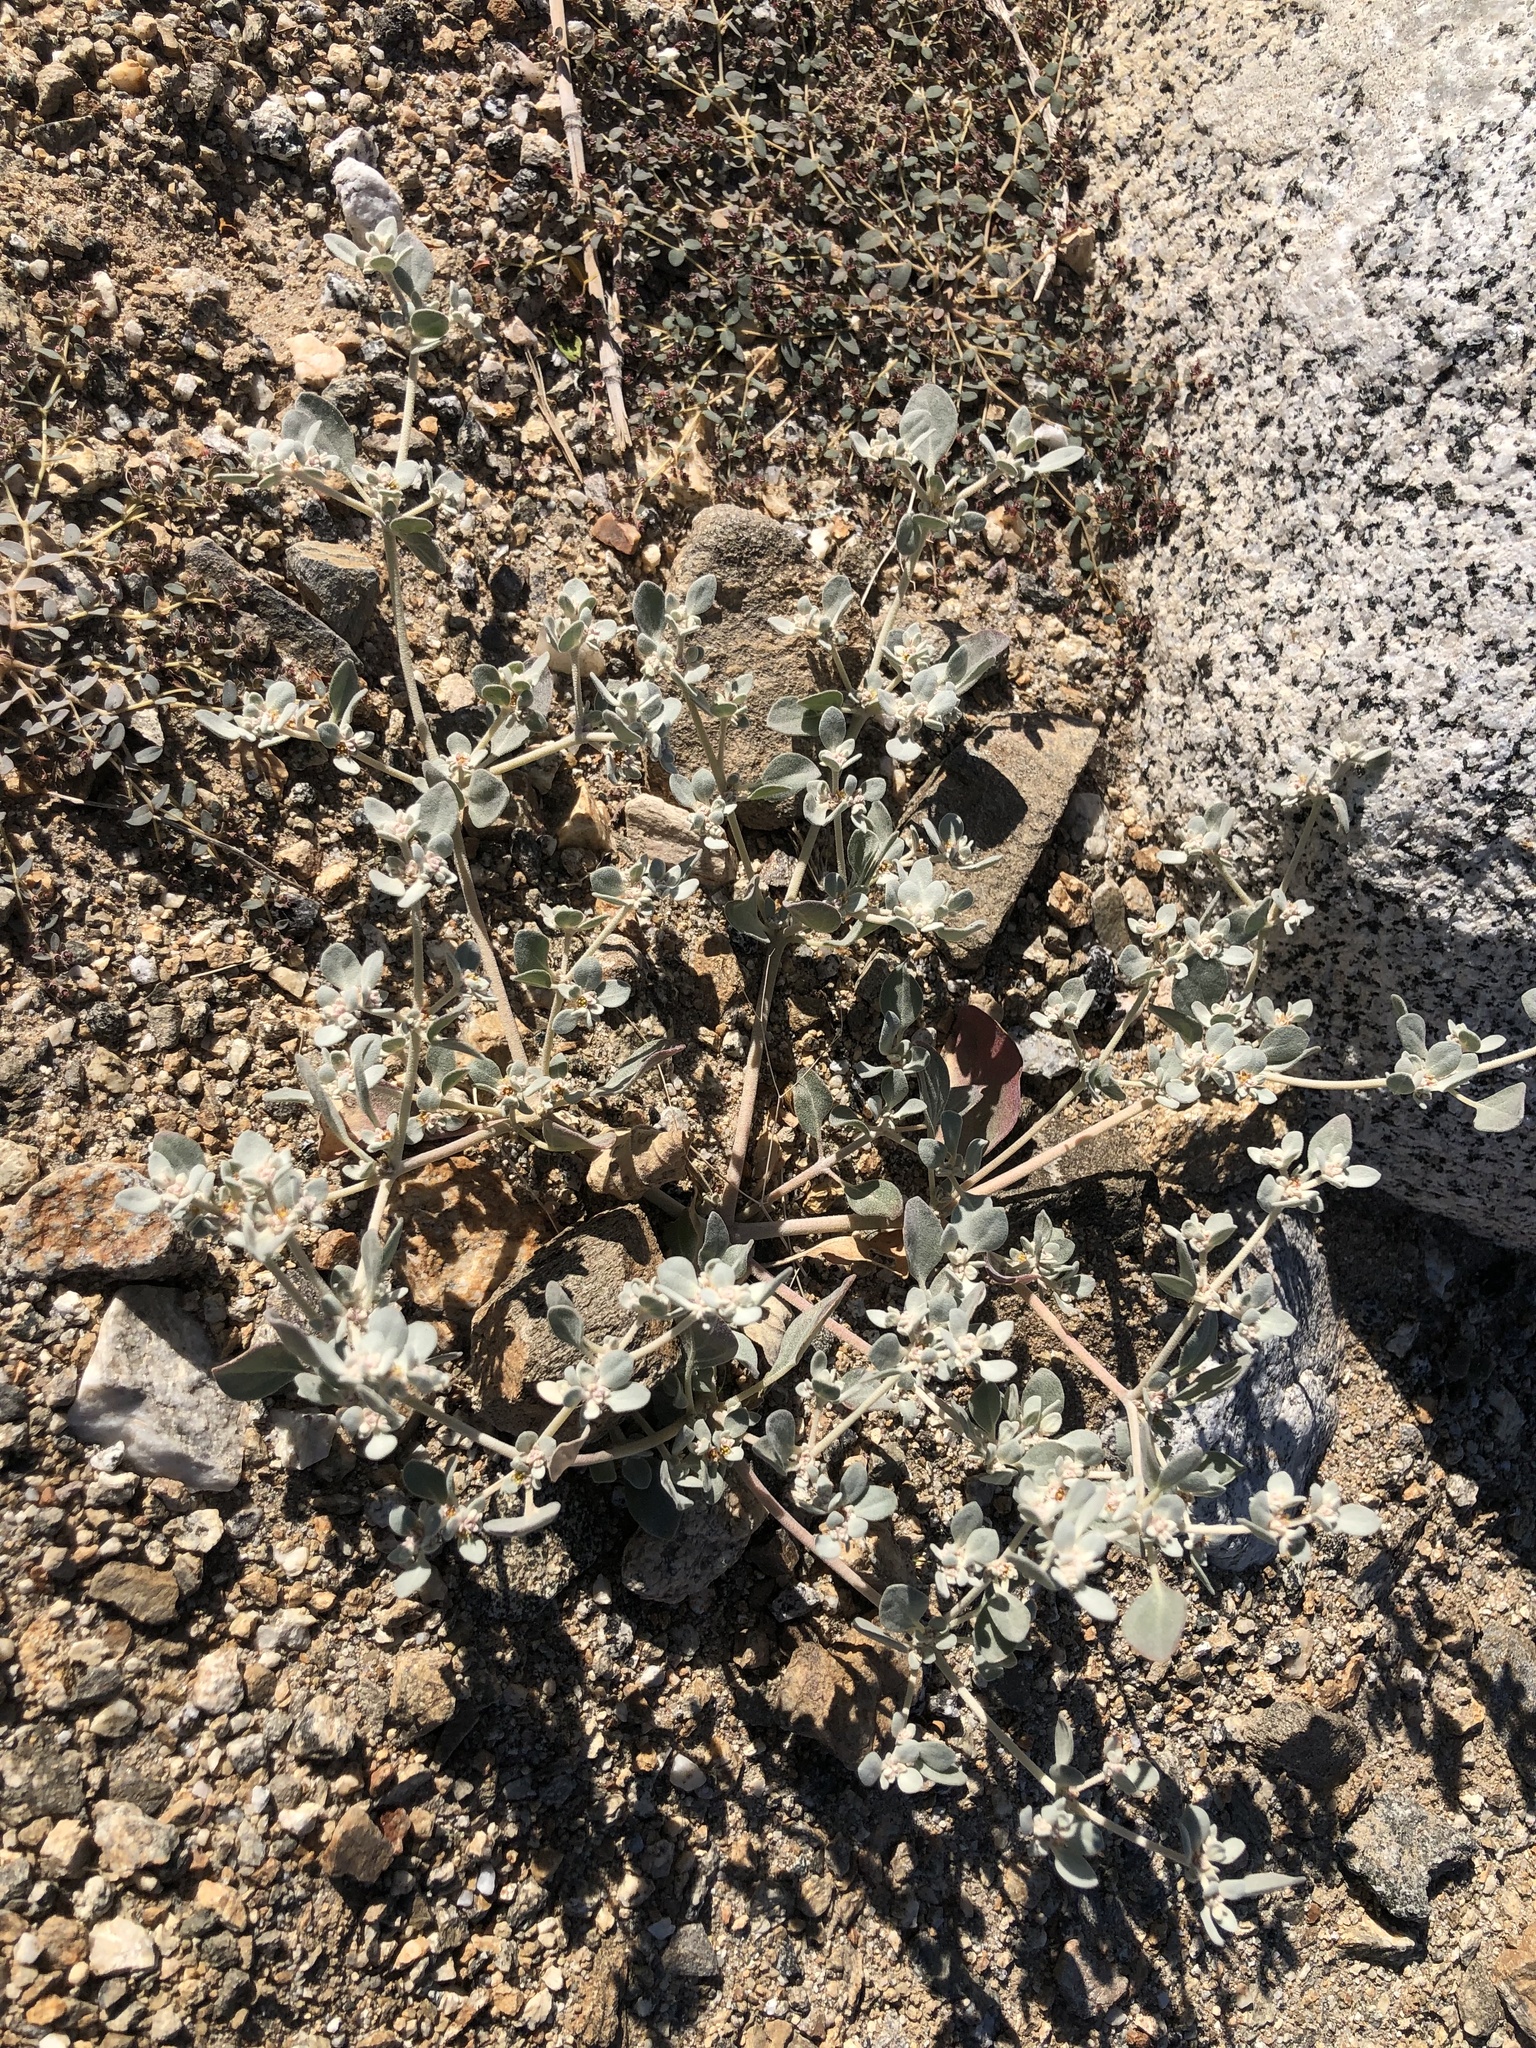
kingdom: Plantae
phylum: Tracheophyta
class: Magnoliopsida
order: Caryophyllales
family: Amaranthaceae
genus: Tidestromia
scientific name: Tidestromia suffruticosa
